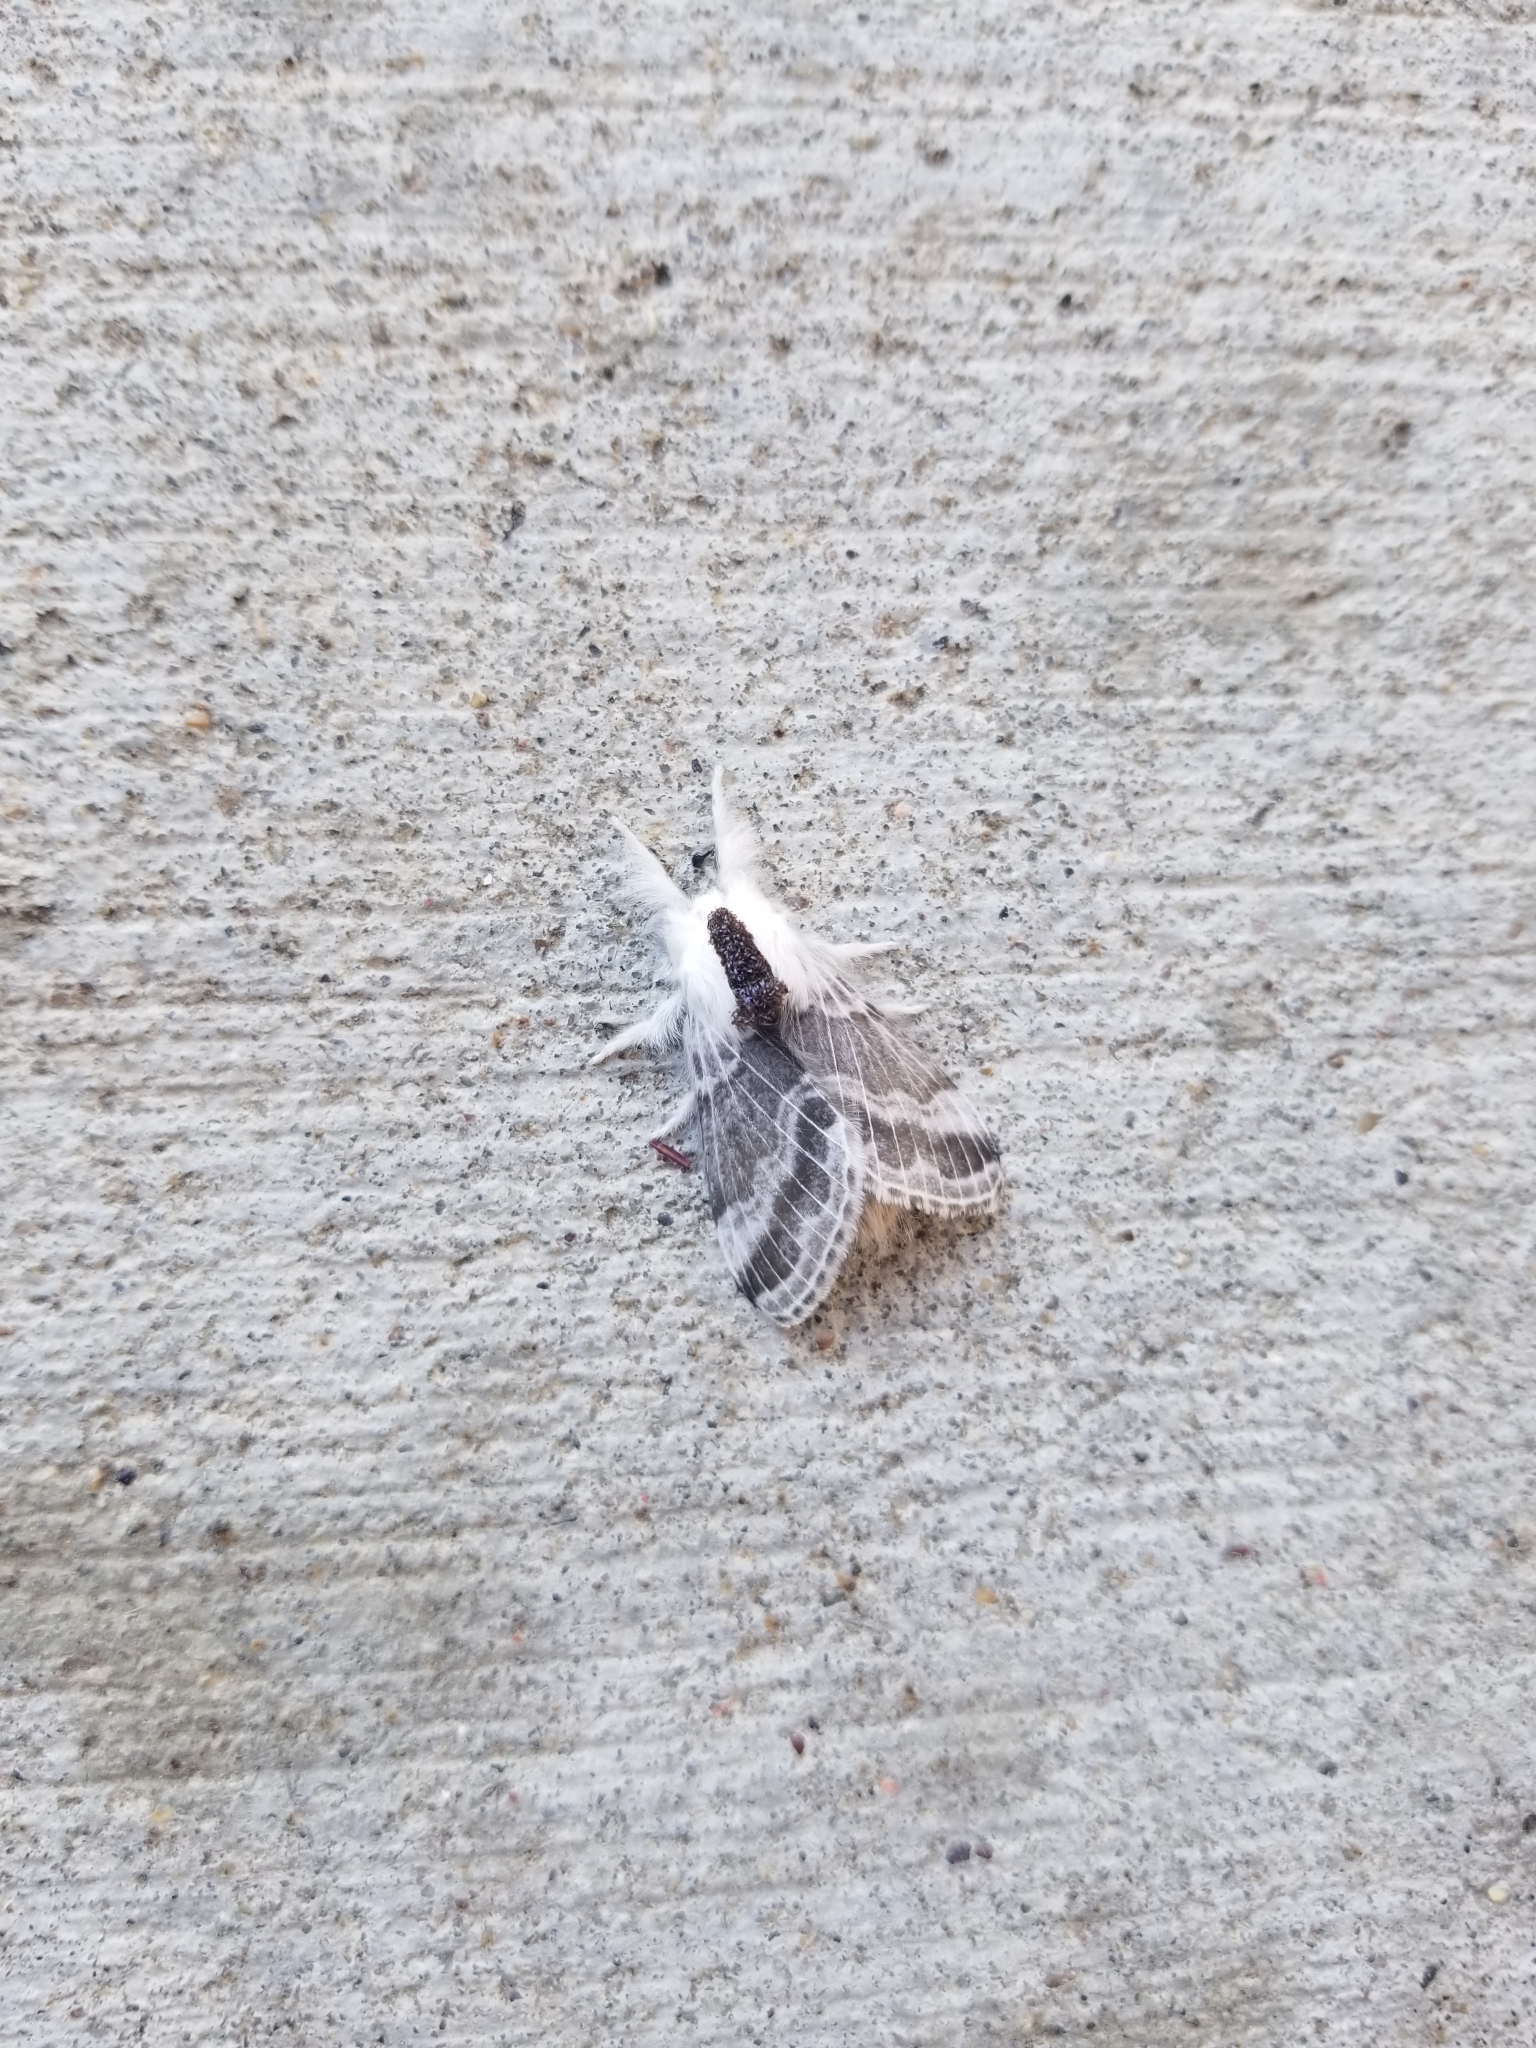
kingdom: Animalia
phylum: Arthropoda
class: Insecta
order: Lepidoptera
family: Lasiocampidae
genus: Tolype
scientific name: Tolype velleda
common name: Large tolype moth
